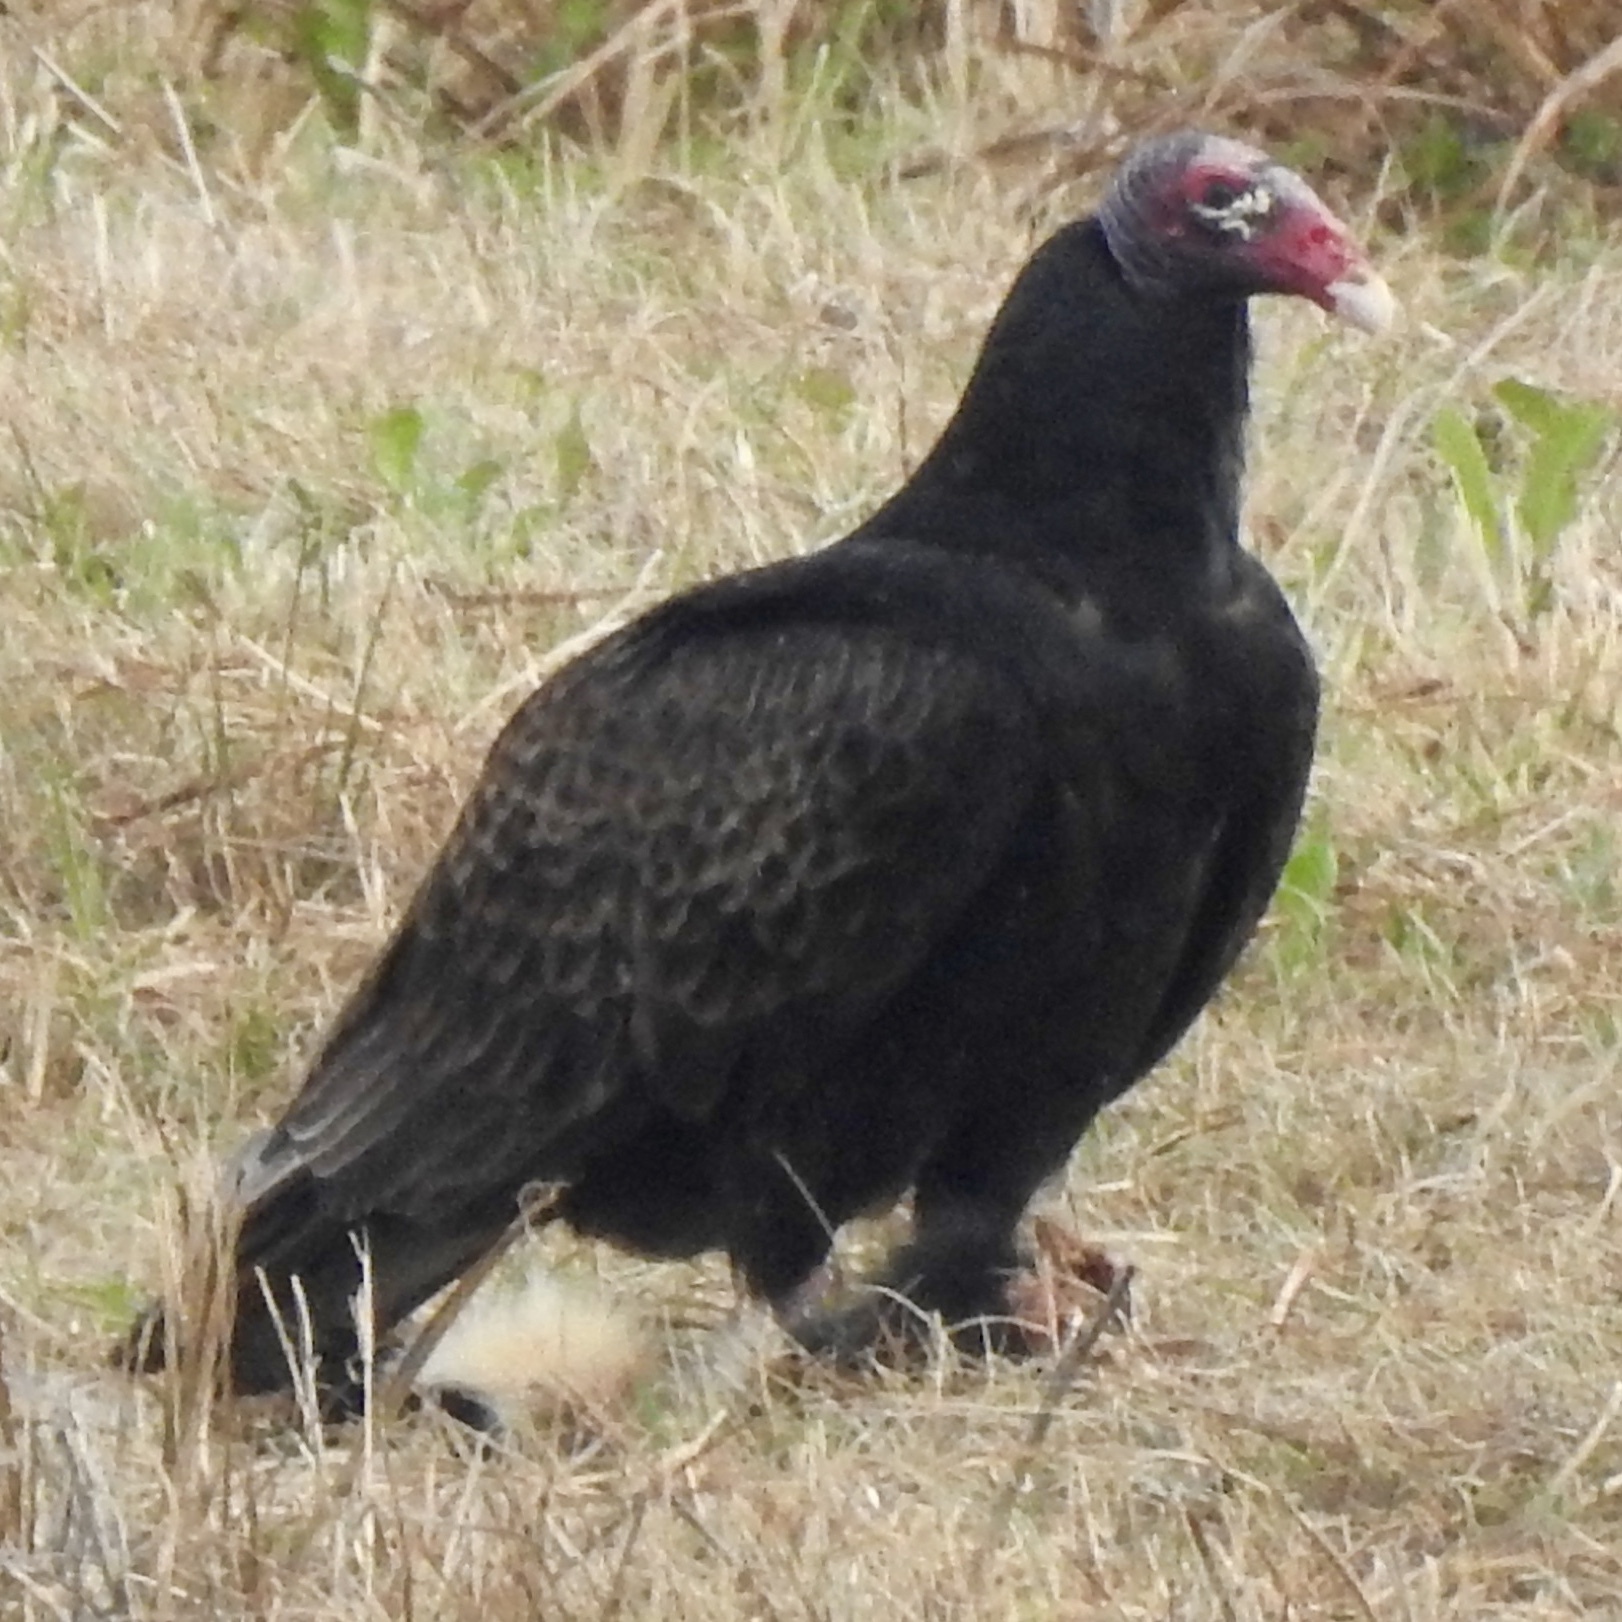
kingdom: Animalia
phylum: Chordata
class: Aves
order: Accipitriformes
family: Cathartidae
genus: Cathartes
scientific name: Cathartes aura
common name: Turkey vulture
